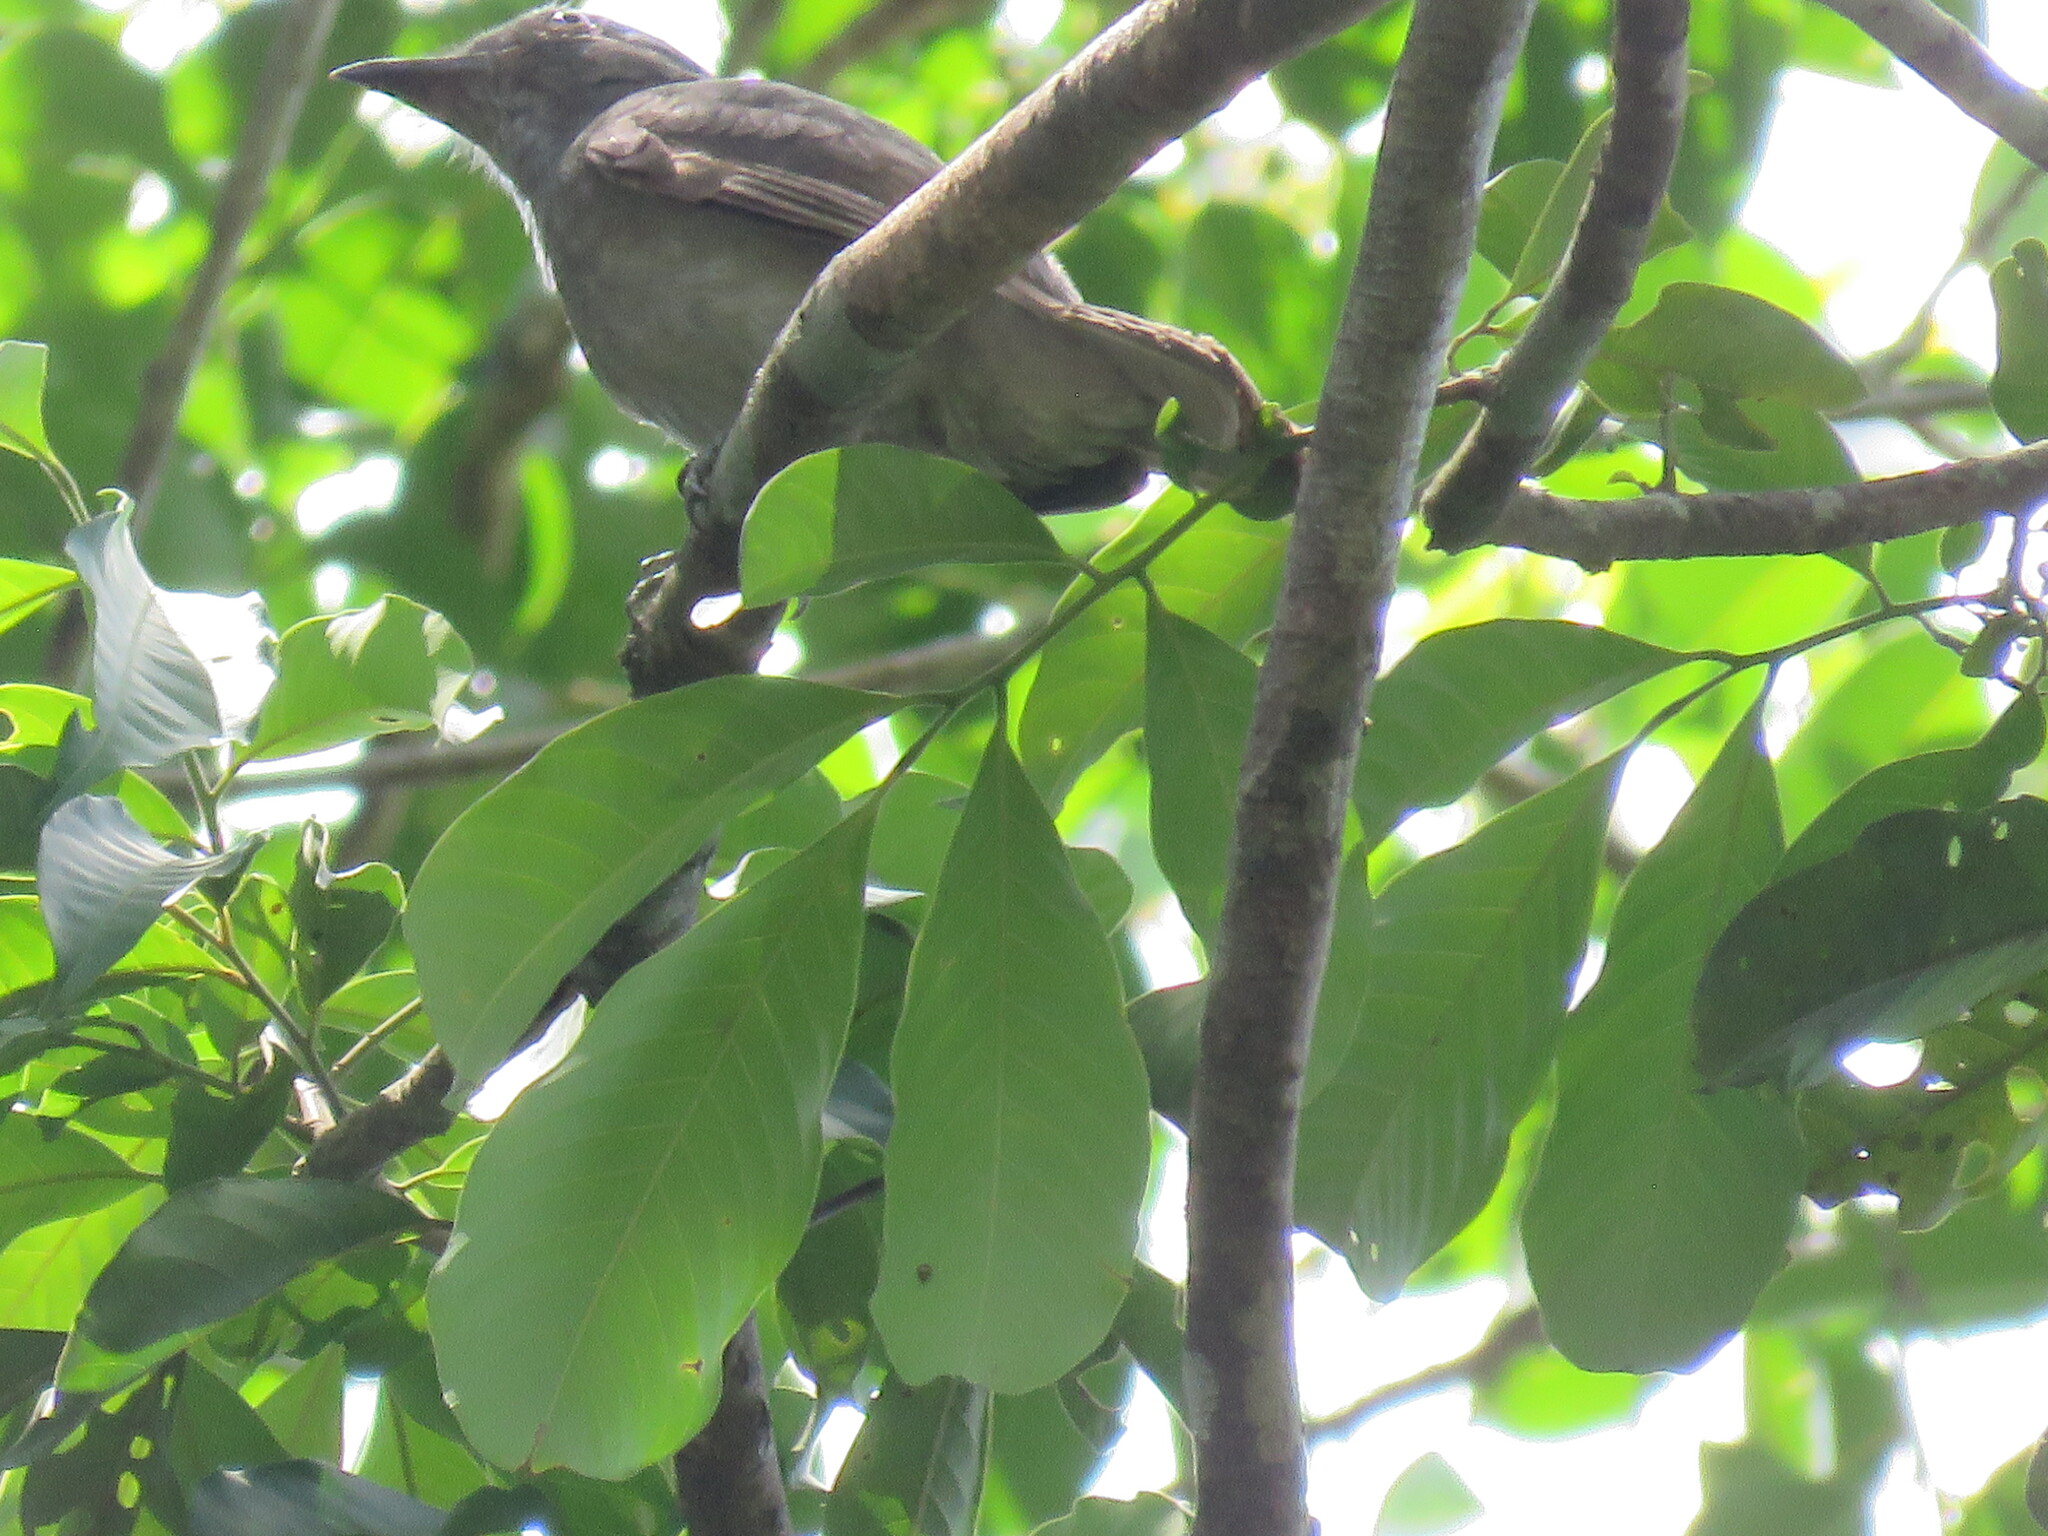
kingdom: Animalia
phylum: Chordata
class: Aves
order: Passeriformes
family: Cotingidae
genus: Lipaugus
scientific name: Lipaugus vociferans
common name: Screaming piha
